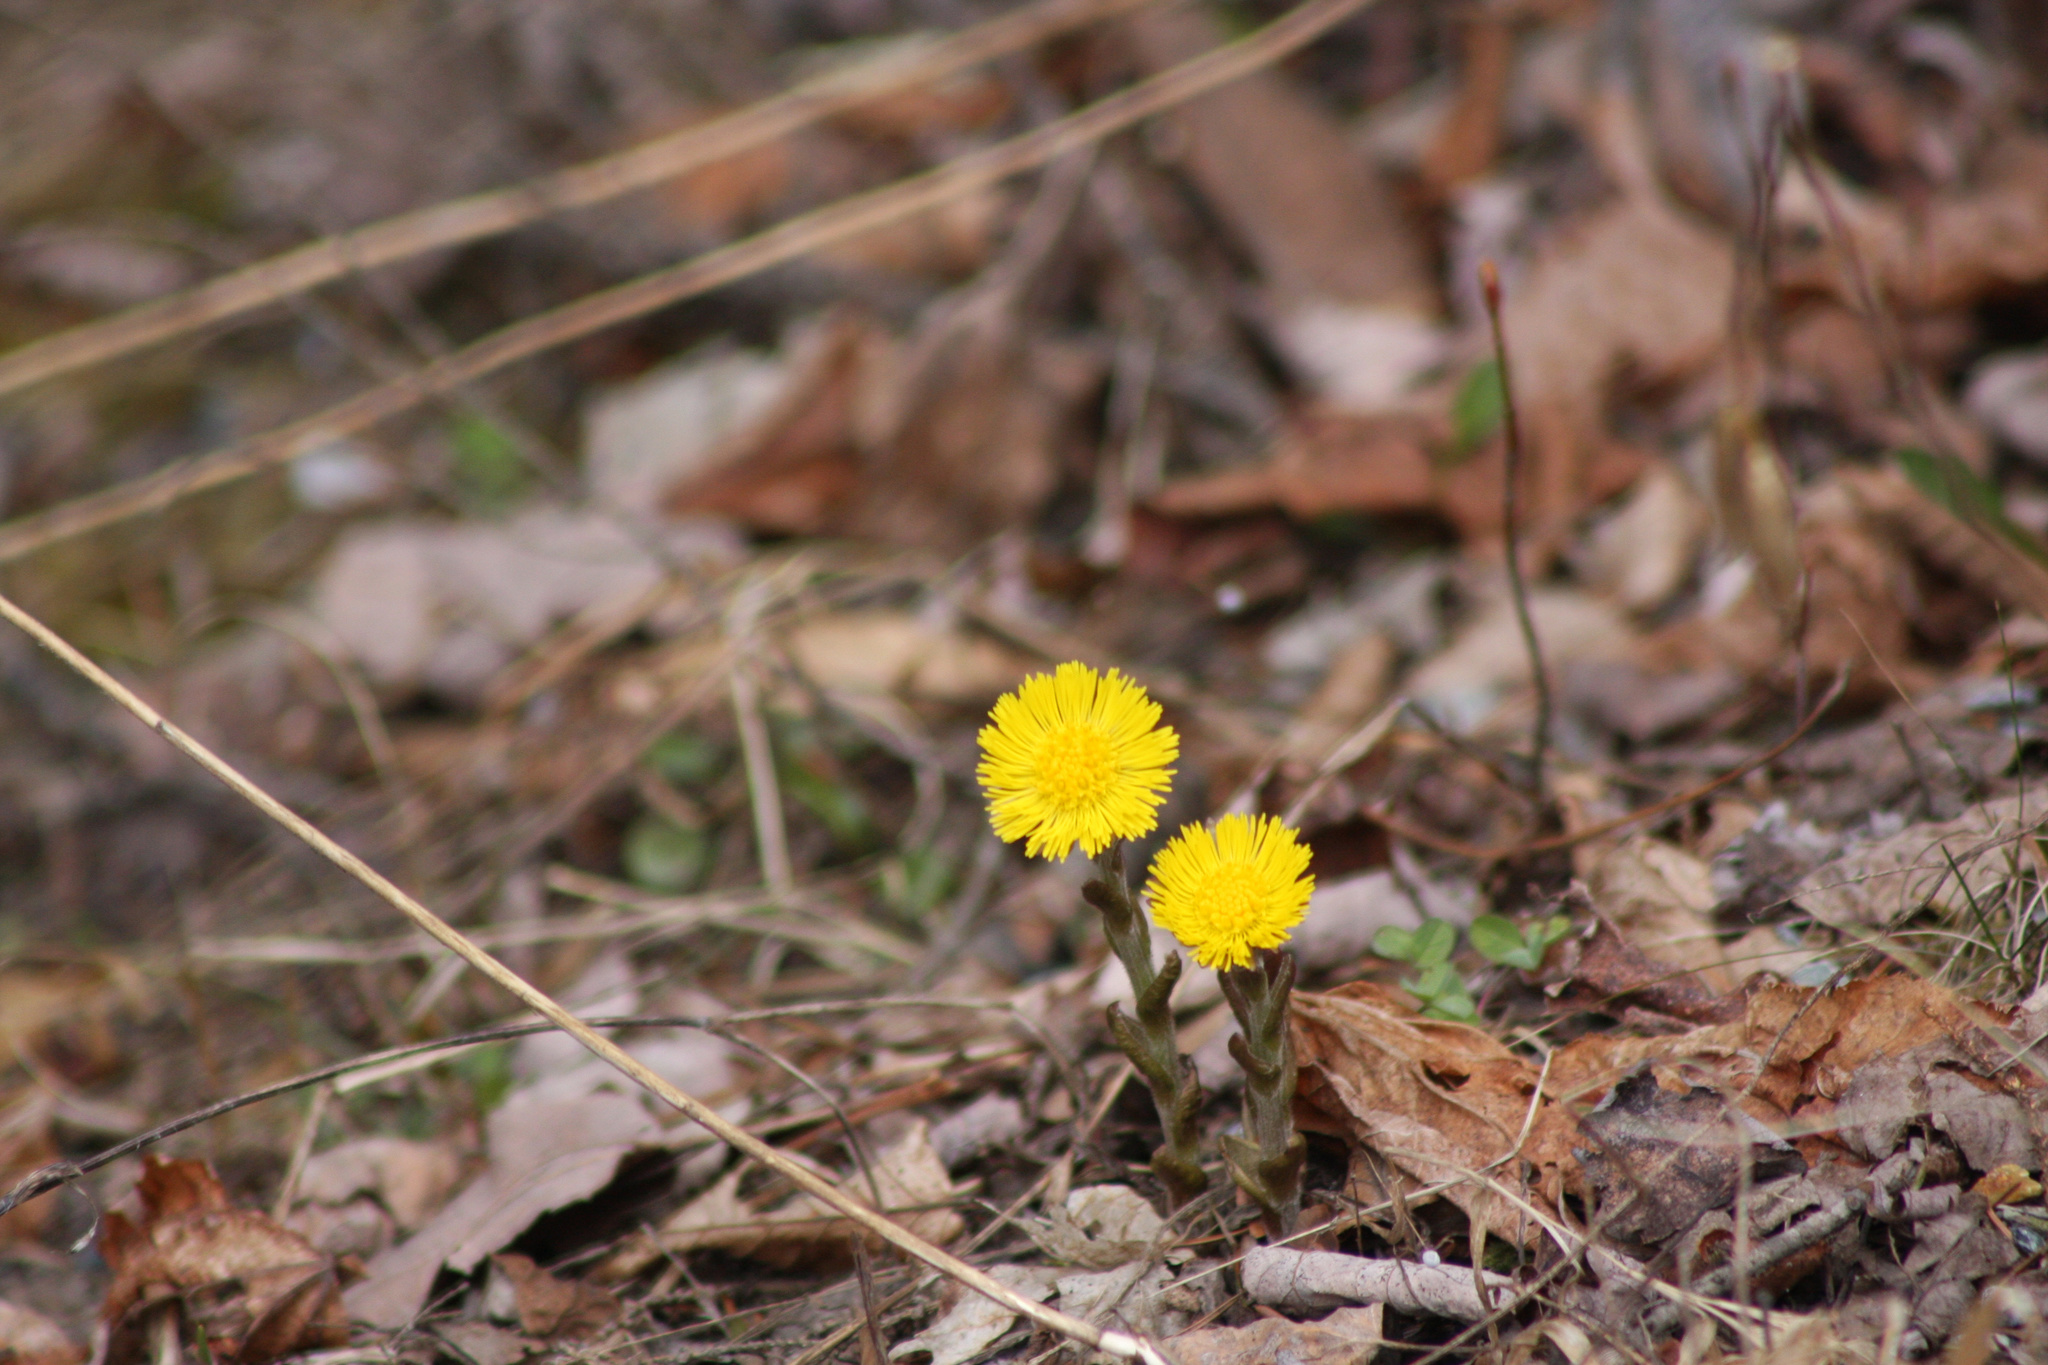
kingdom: Plantae
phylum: Tracheophyta
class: Magnoliopsida
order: Asterales
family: Asteraceae
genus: Tussilago
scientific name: Tussilago farfara
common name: Coltsfoot
